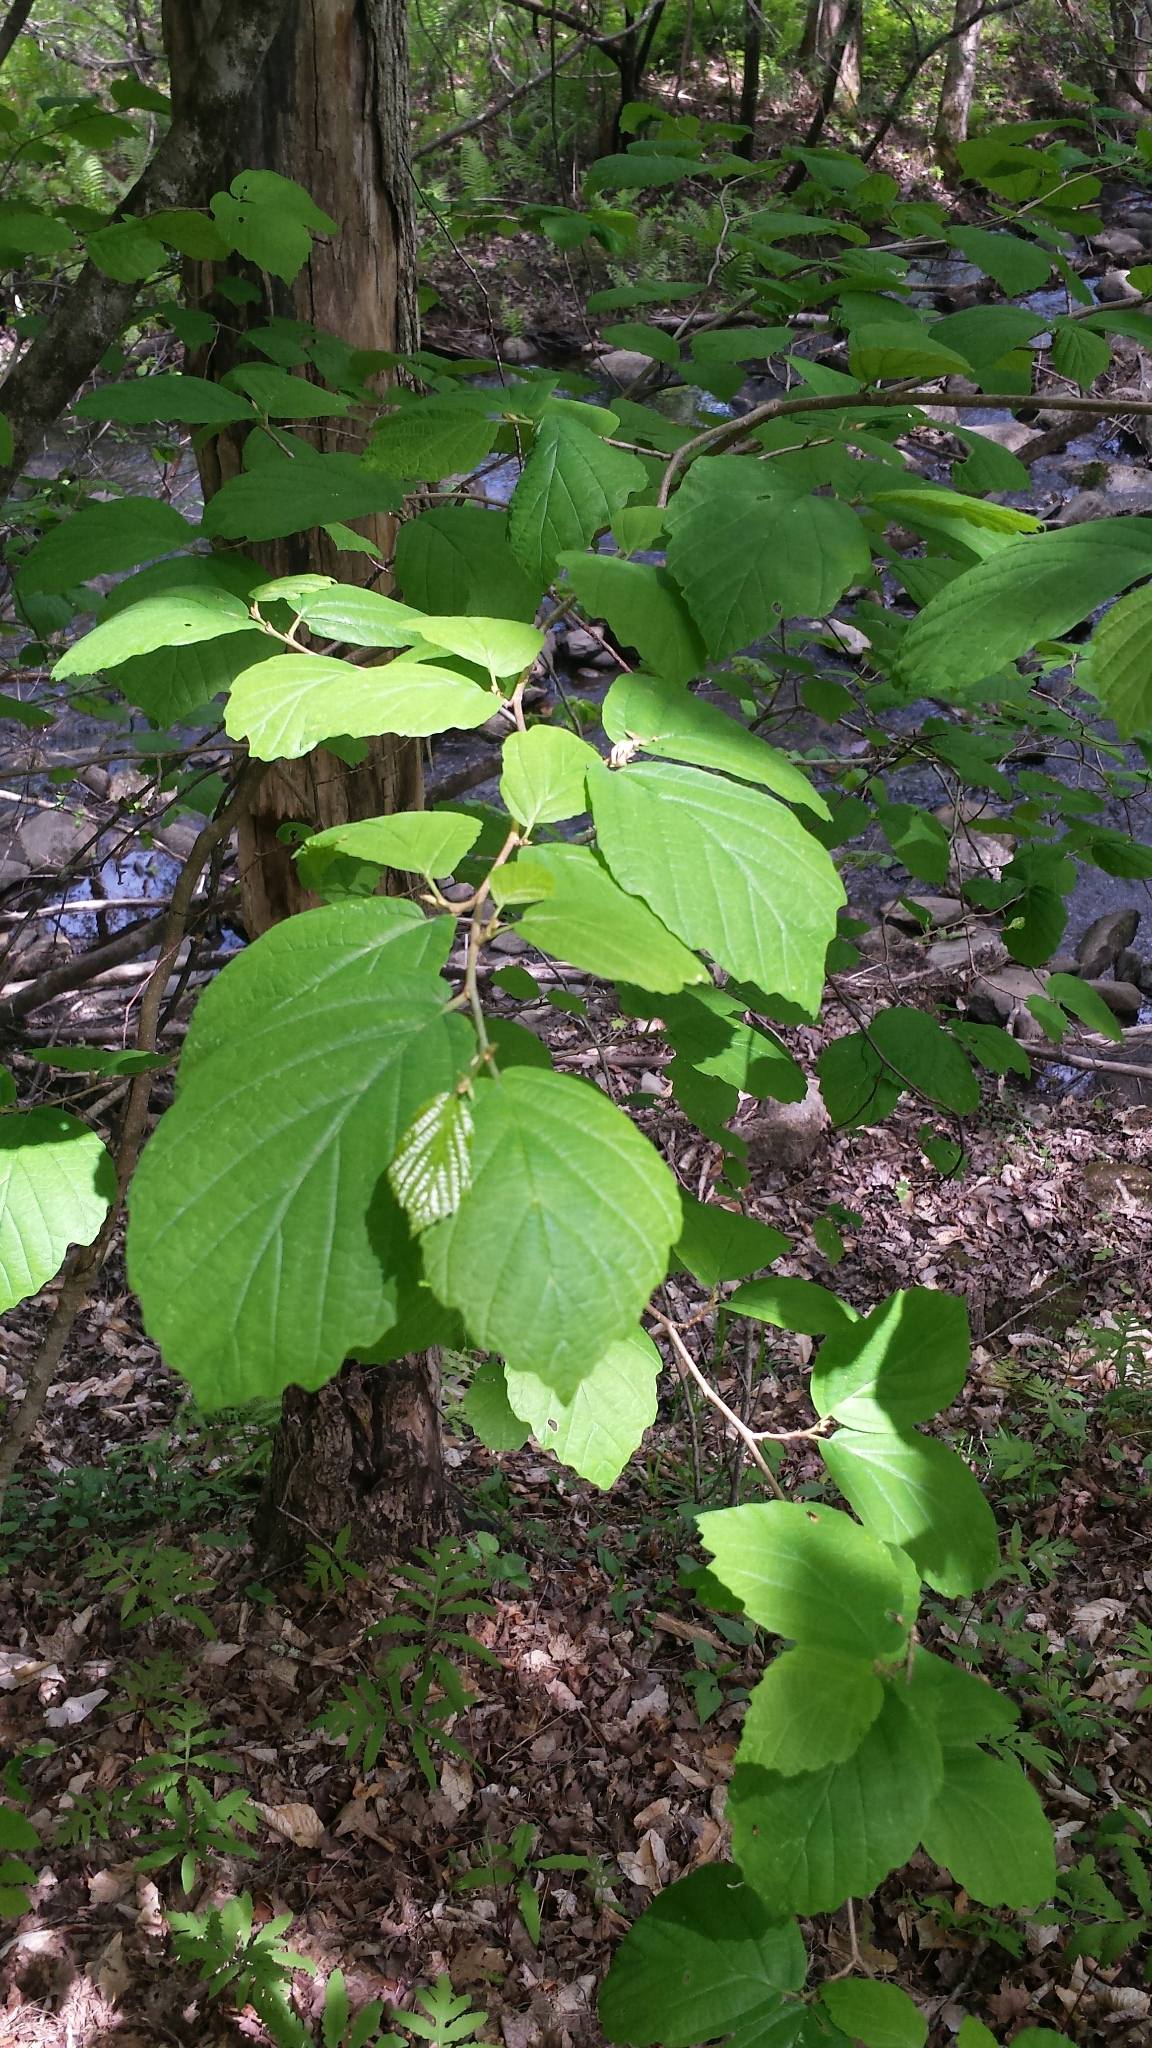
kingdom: Plantae
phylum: Tracheophyta
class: Magnoliopsida
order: Saxifragales
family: Hamamelidaceae
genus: Hamamelis
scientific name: Hamamelis virginiana
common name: Witch-hazel
